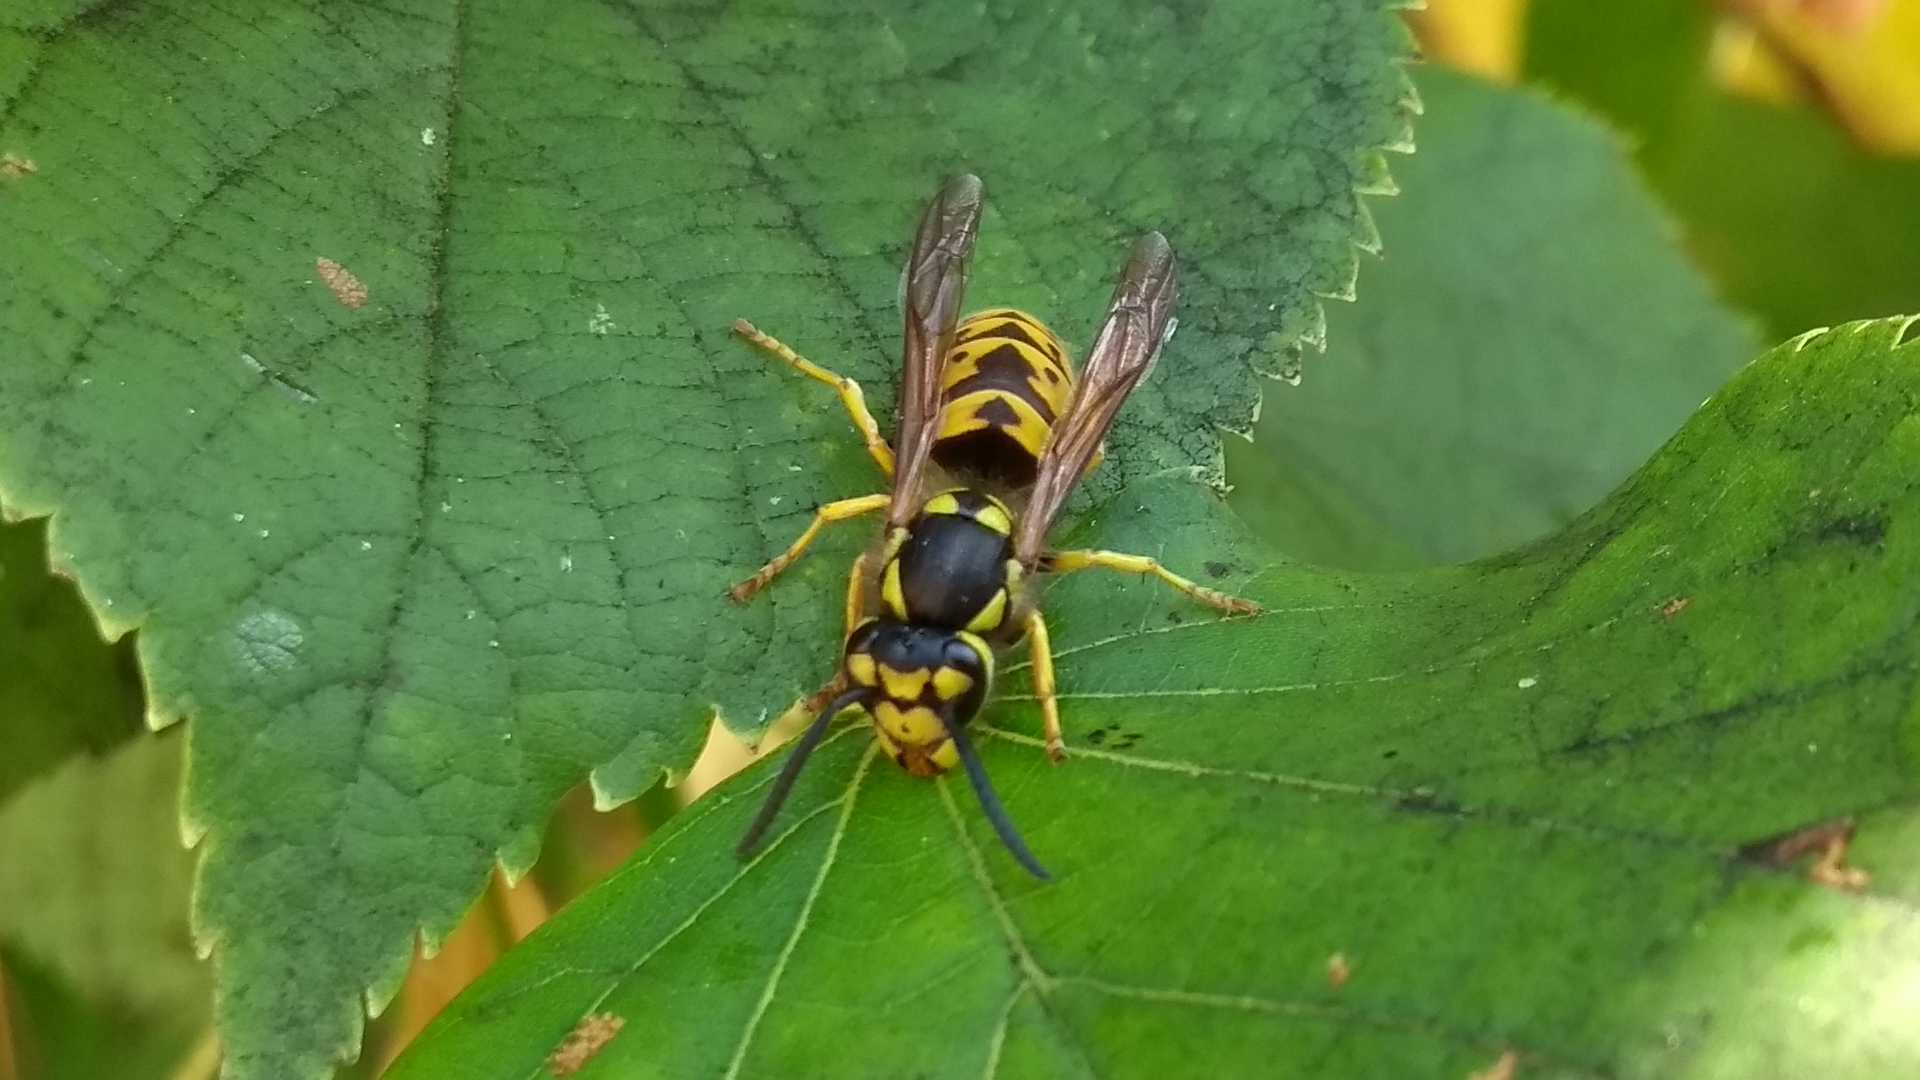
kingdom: Animalia
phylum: Arthropoda
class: Insecta
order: Hymenoptera
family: Vespidae
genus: Vespula
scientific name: Vespula germanica
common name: German wasp
